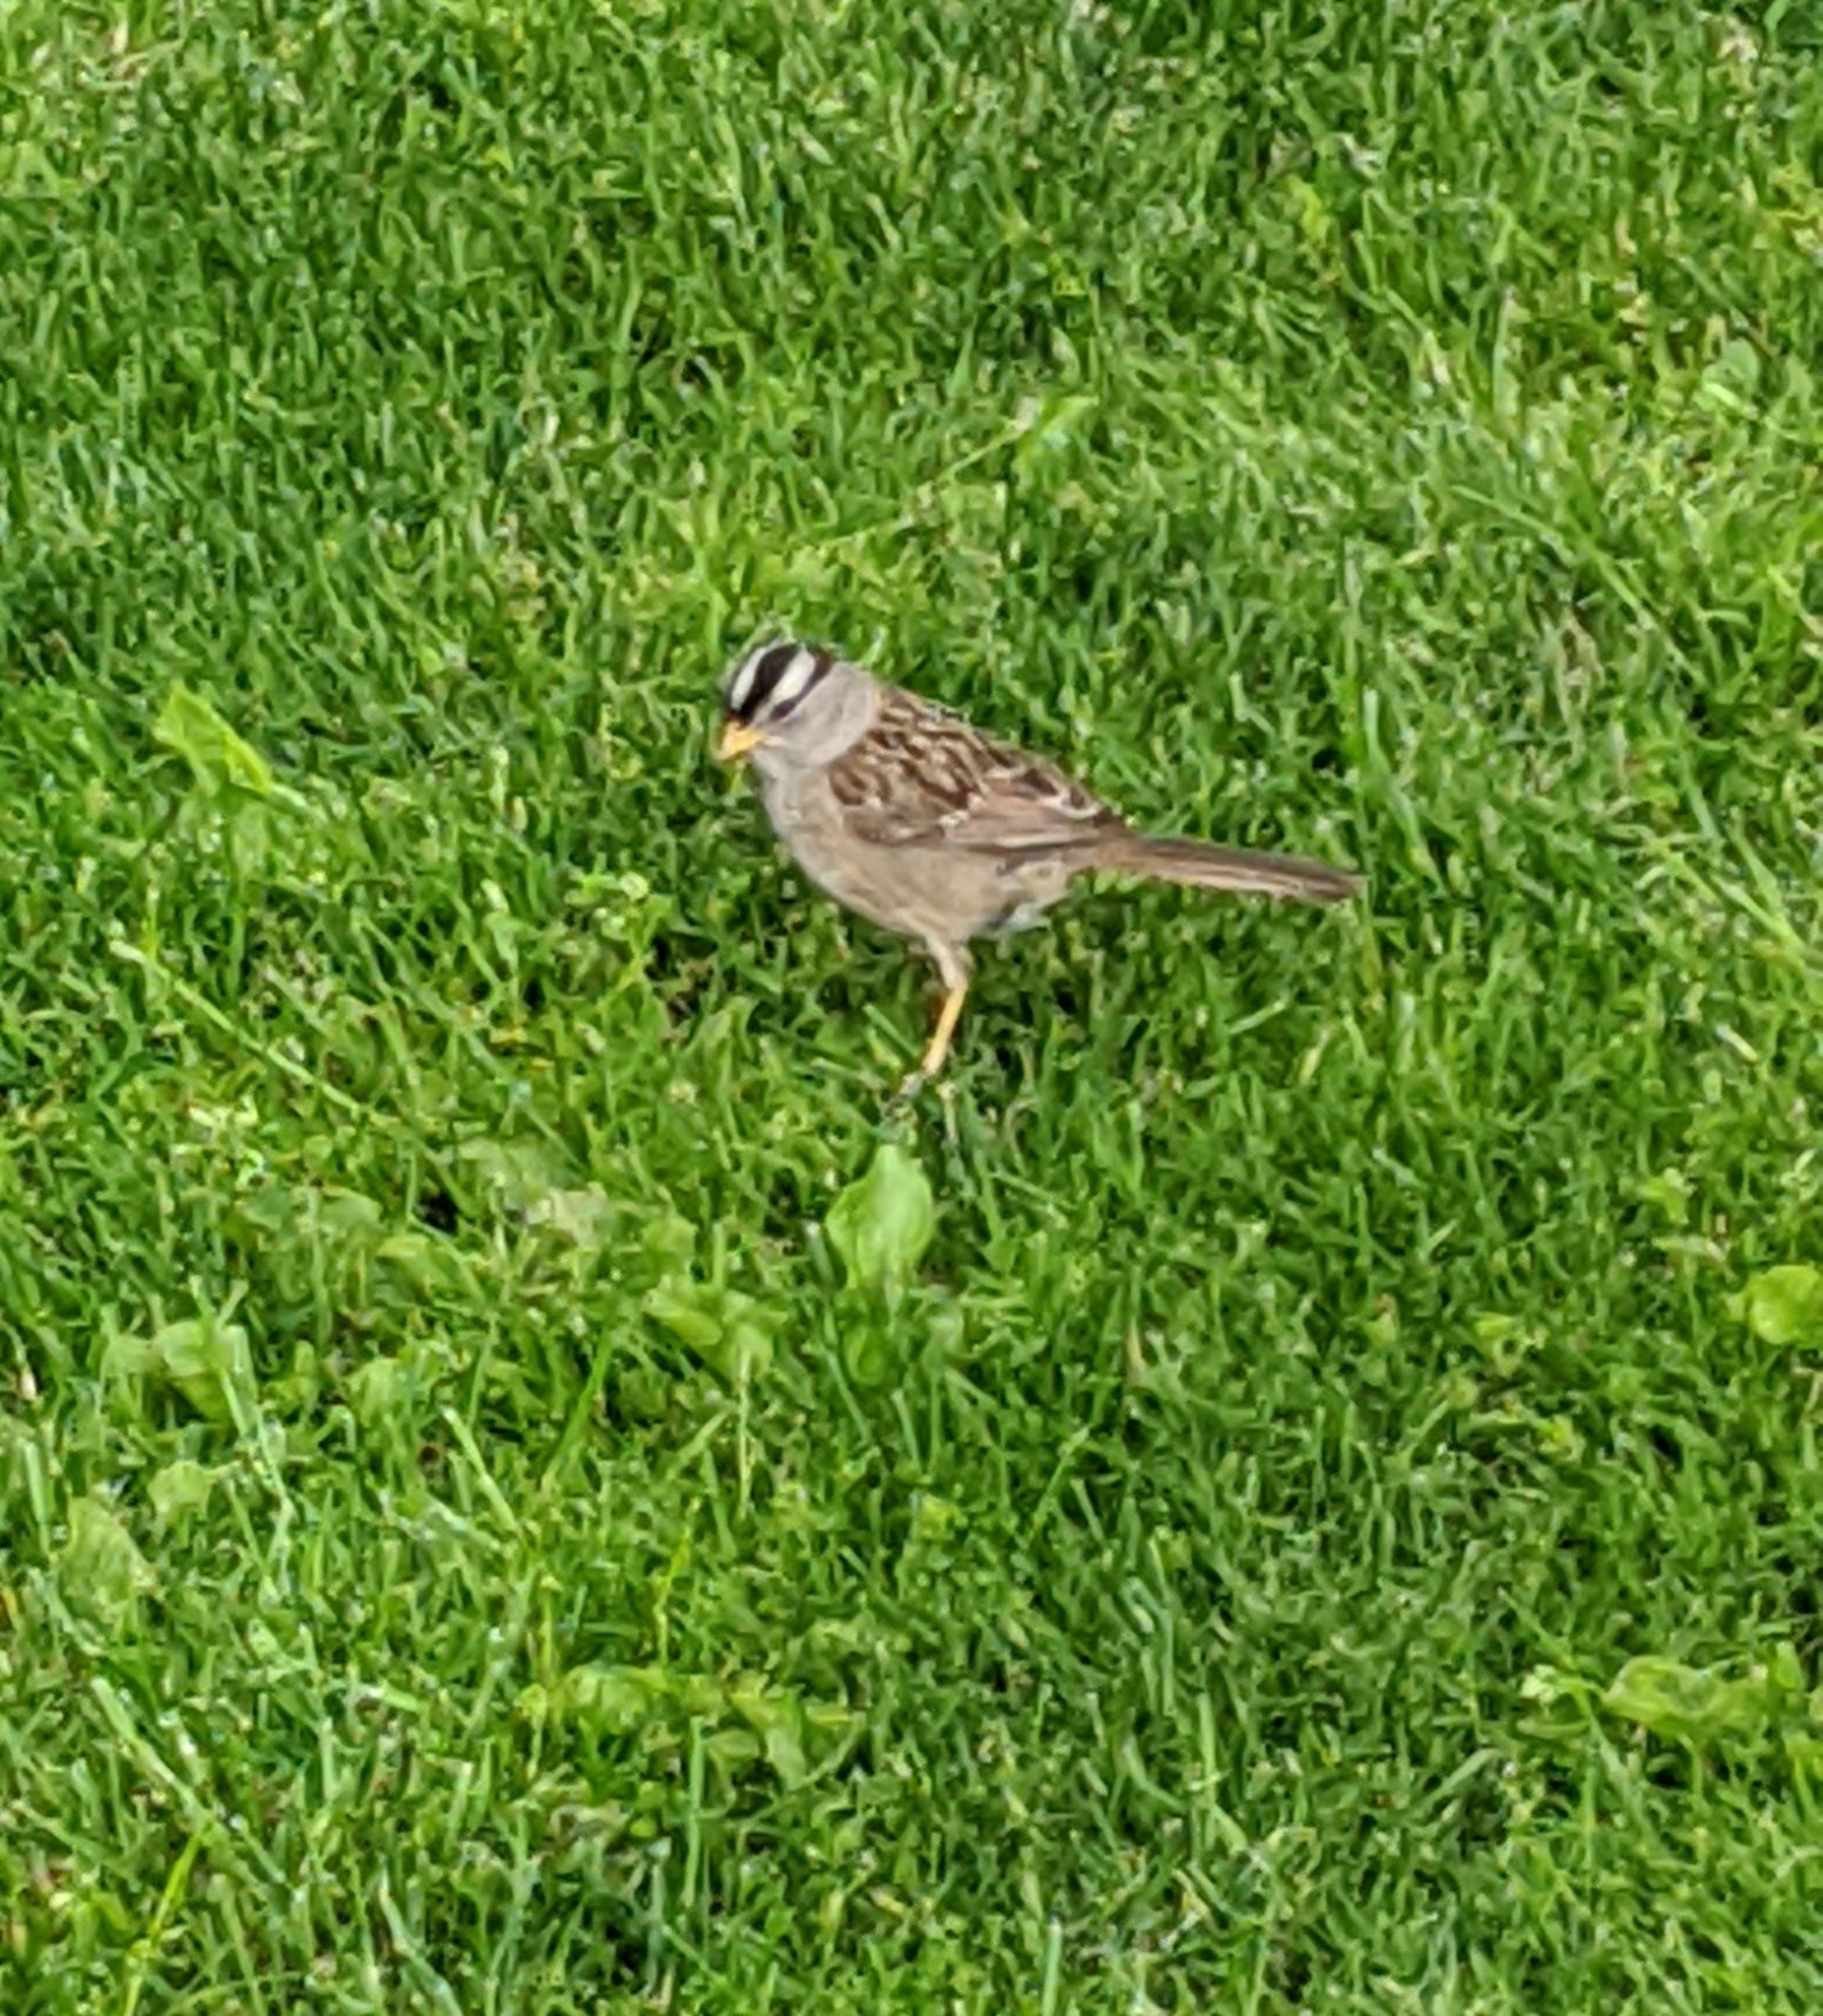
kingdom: Animalia
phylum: Chordata
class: Aves
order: Passeriformes
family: Passerellidae
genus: Zonotrichia
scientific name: Zonotrichia leucophrys
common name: White-crowned sparrow
